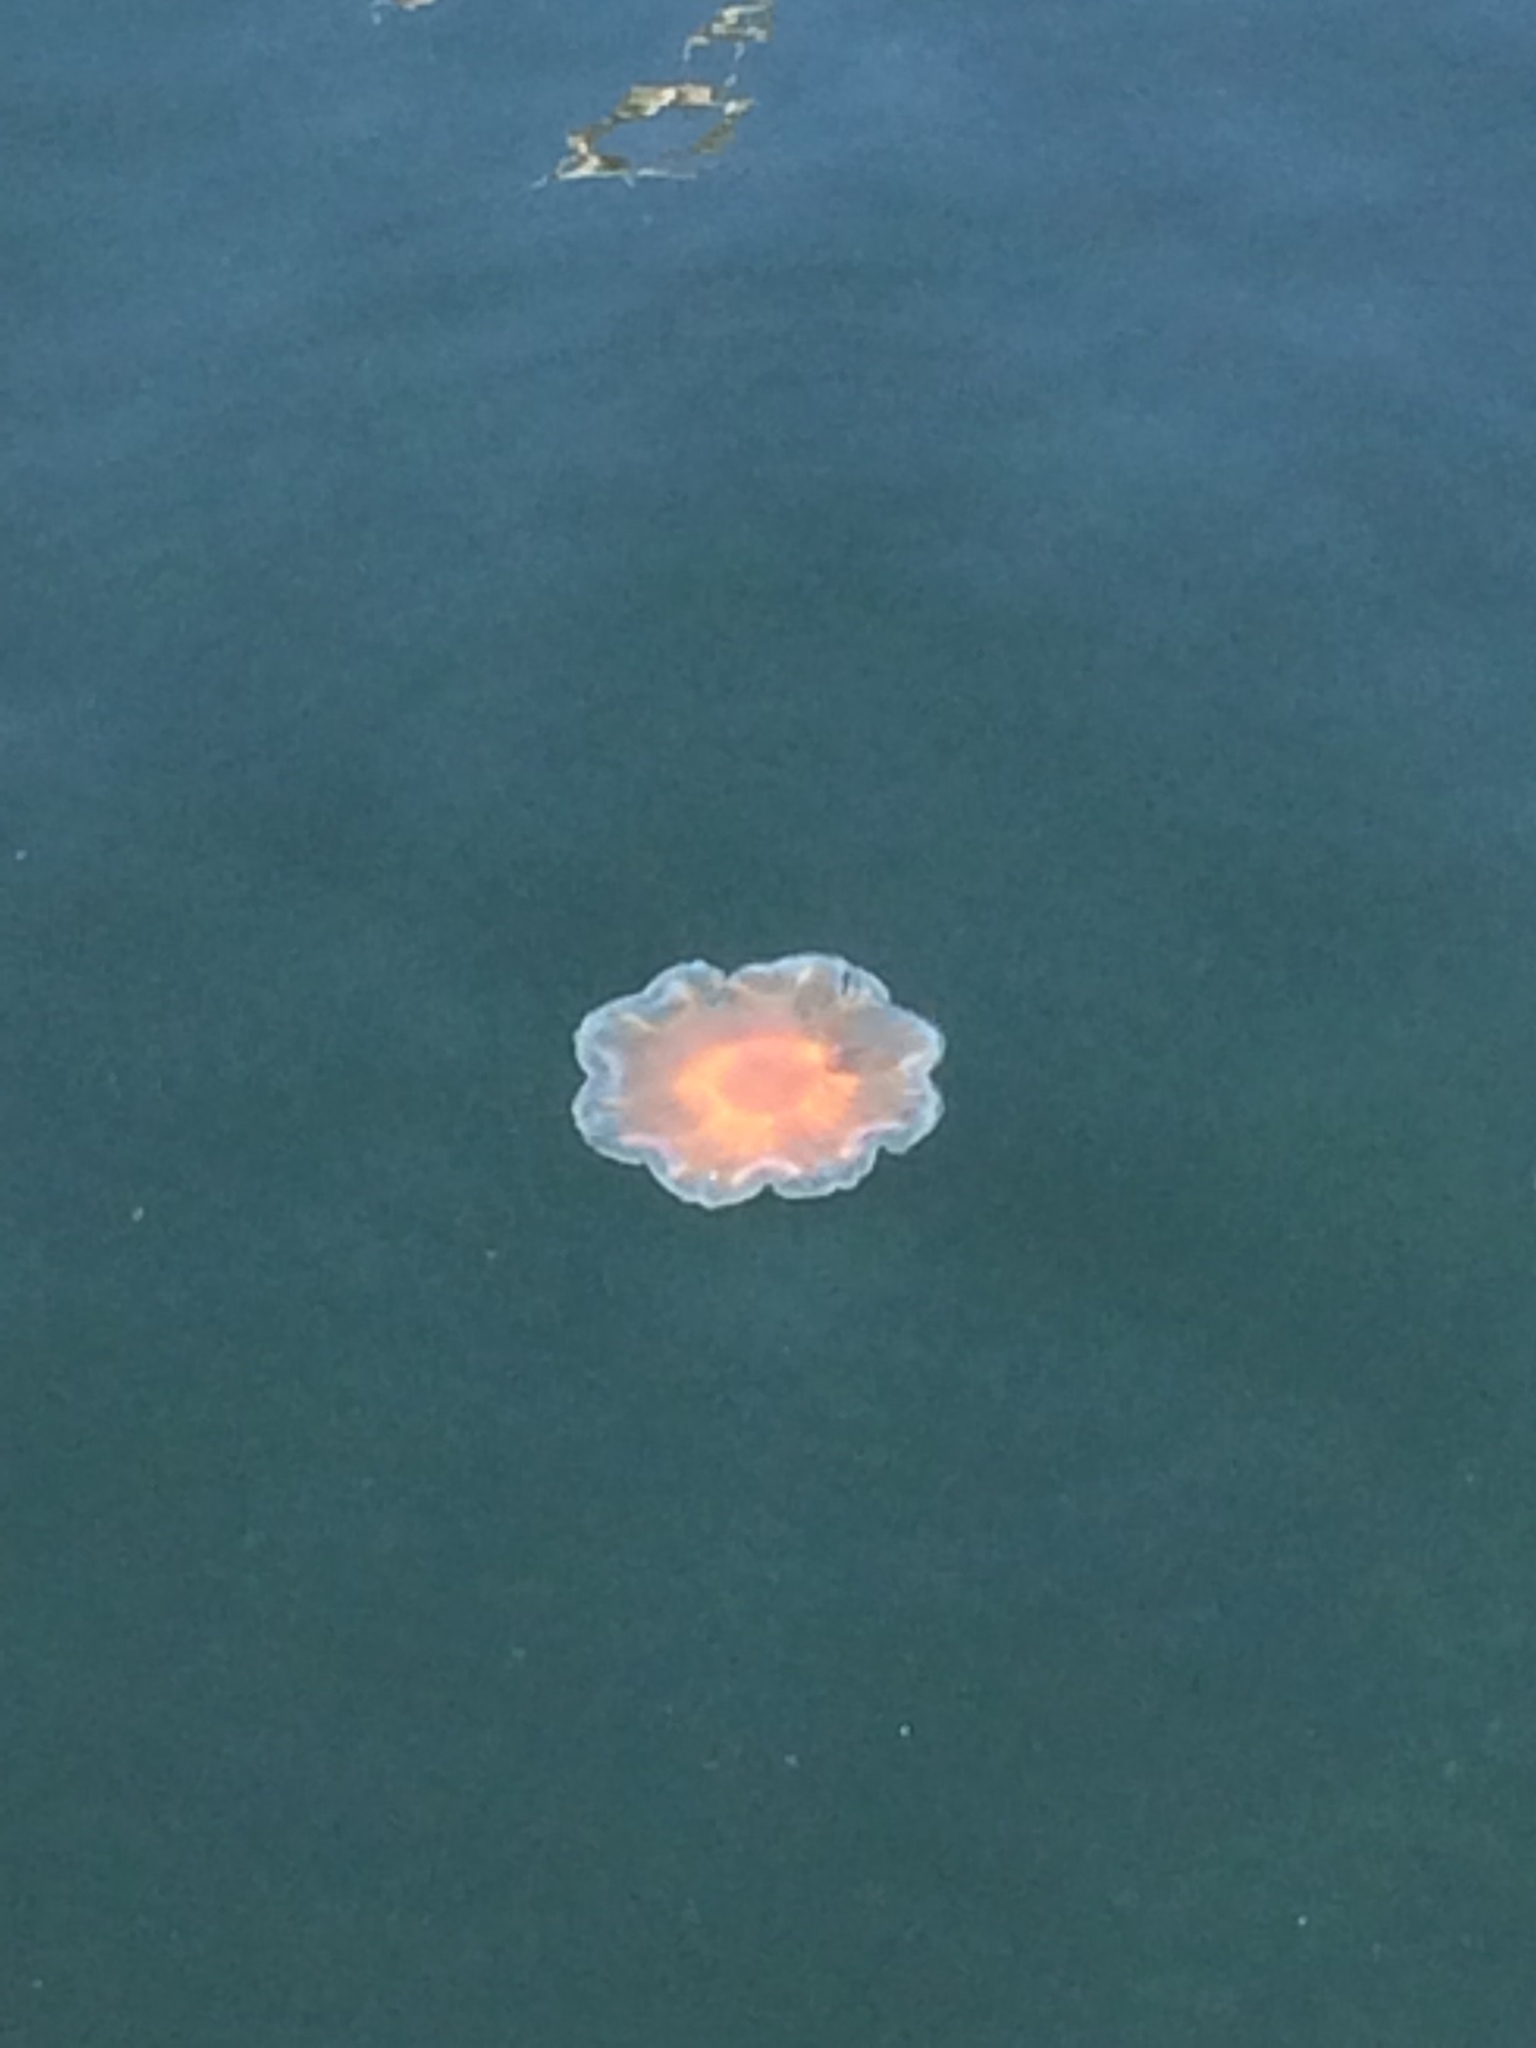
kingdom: Animalia
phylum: Cnidaria
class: Scyphozoa
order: Semaeostomeae
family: Cyaneidae
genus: Cyanea
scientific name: Cyanea capillata
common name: Lion's mane jellyfish
